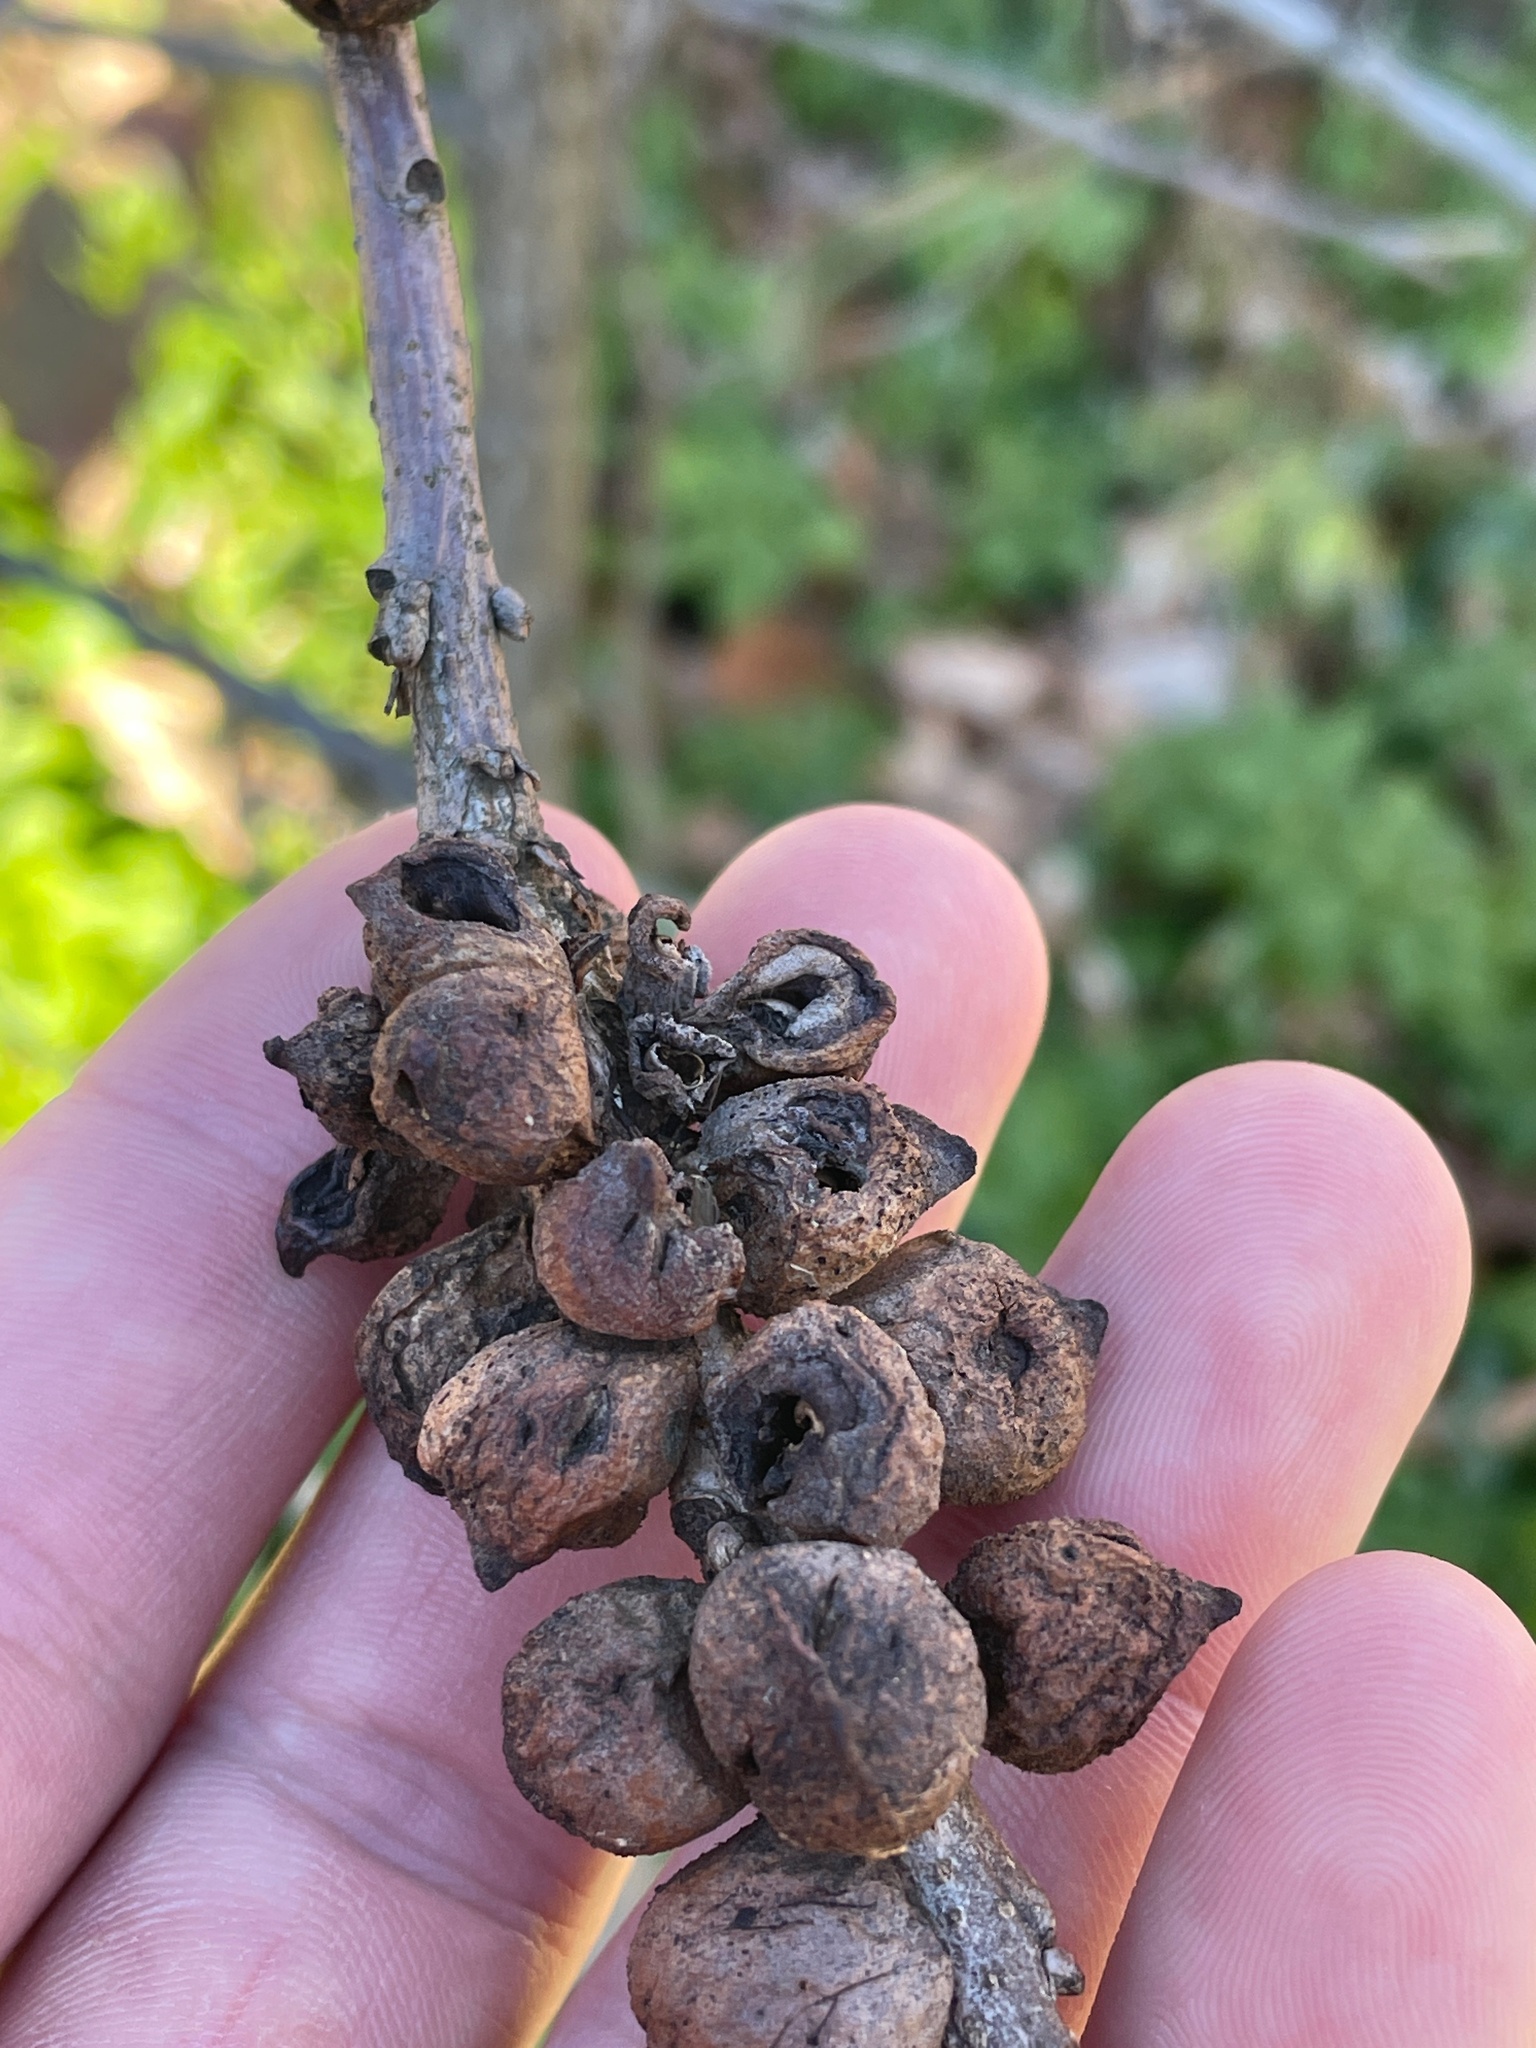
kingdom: Animalia
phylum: Arthropoda
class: Insecta
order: Hymenoptera
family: Cynipidae
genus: Disholcaspis
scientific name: Disholcaspis
